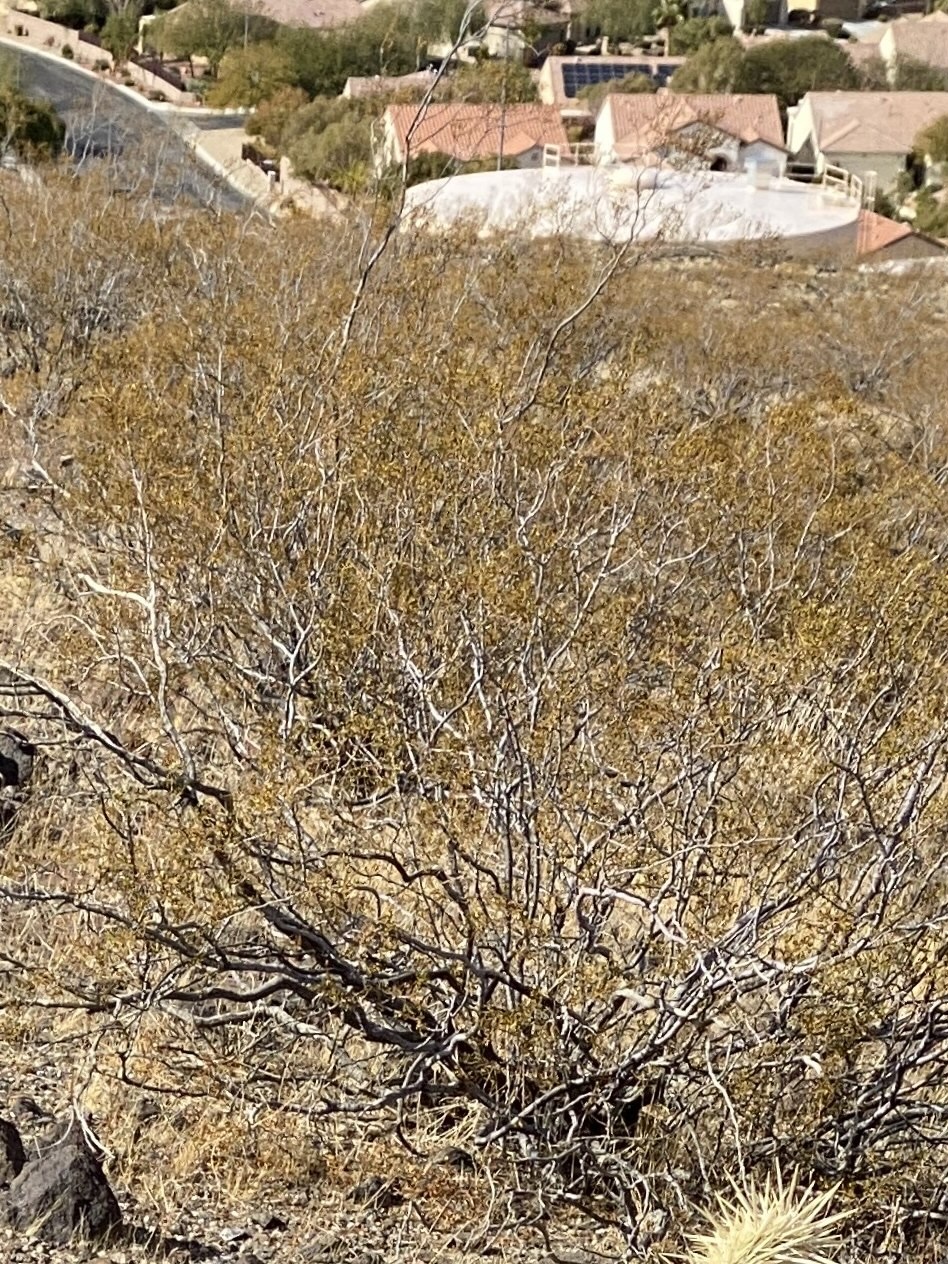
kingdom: Plantae
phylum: Tracheophyta
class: Magnoliopsida
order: Zygophyllales
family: Zygophyllaceae
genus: Larrea
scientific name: Larrea tridentata
